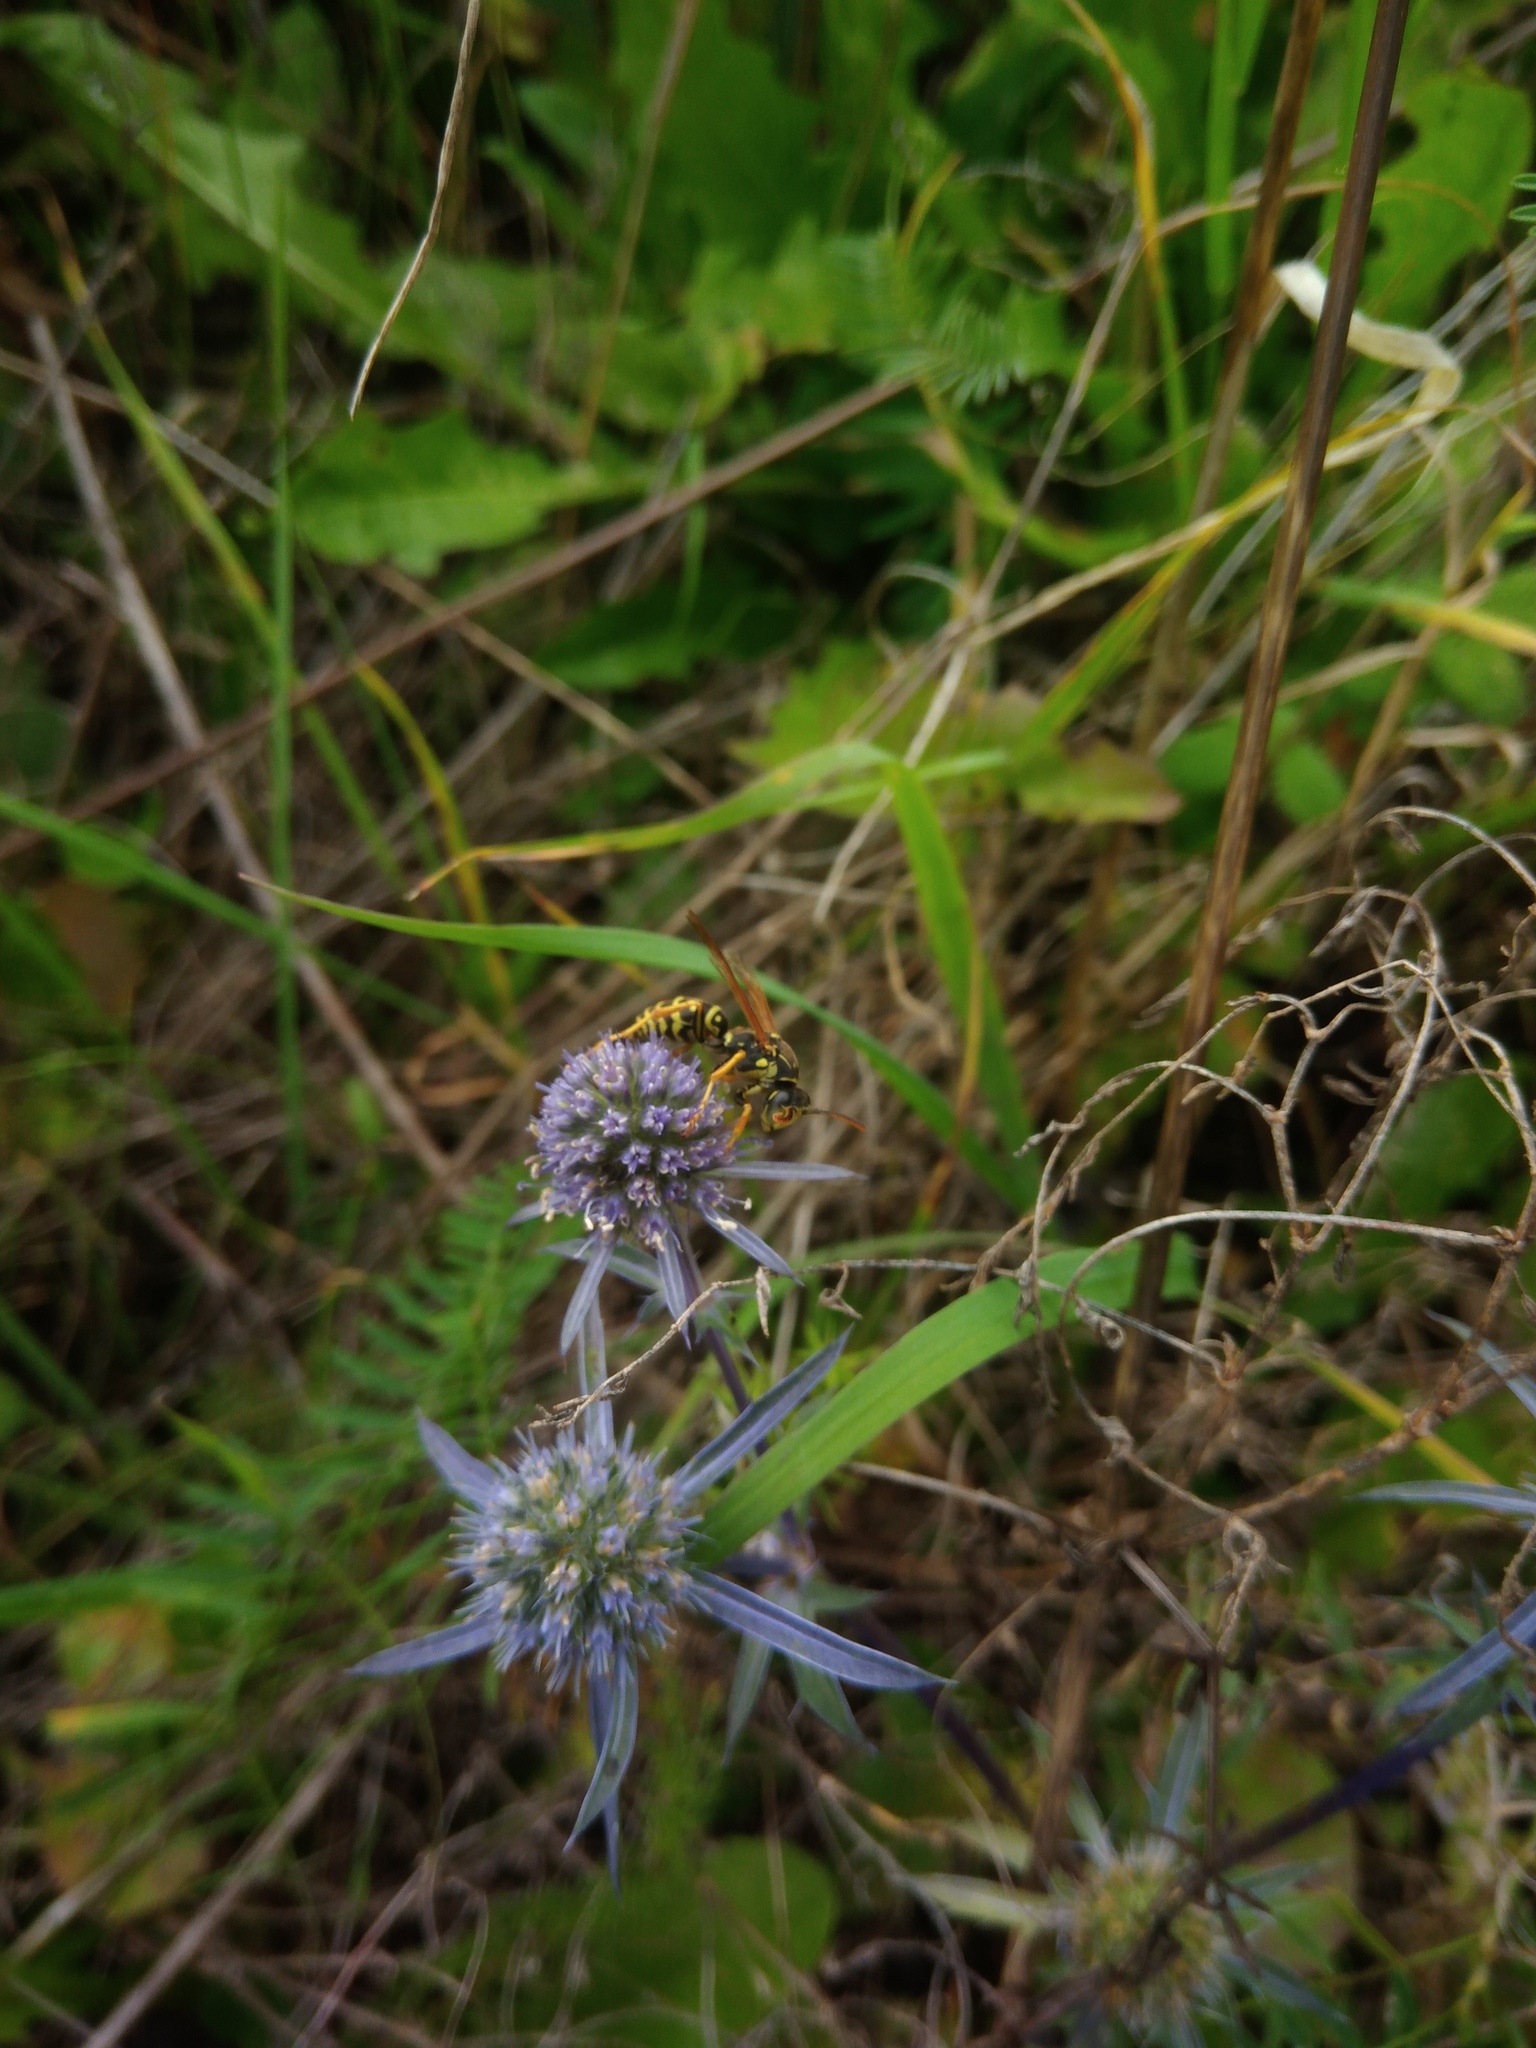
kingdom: Plantae
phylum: Tracheophyta
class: Magnoliopsida
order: Apiales
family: Apiaceae
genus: Eryngium
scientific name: Eryngium planum
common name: Blue eryngo
